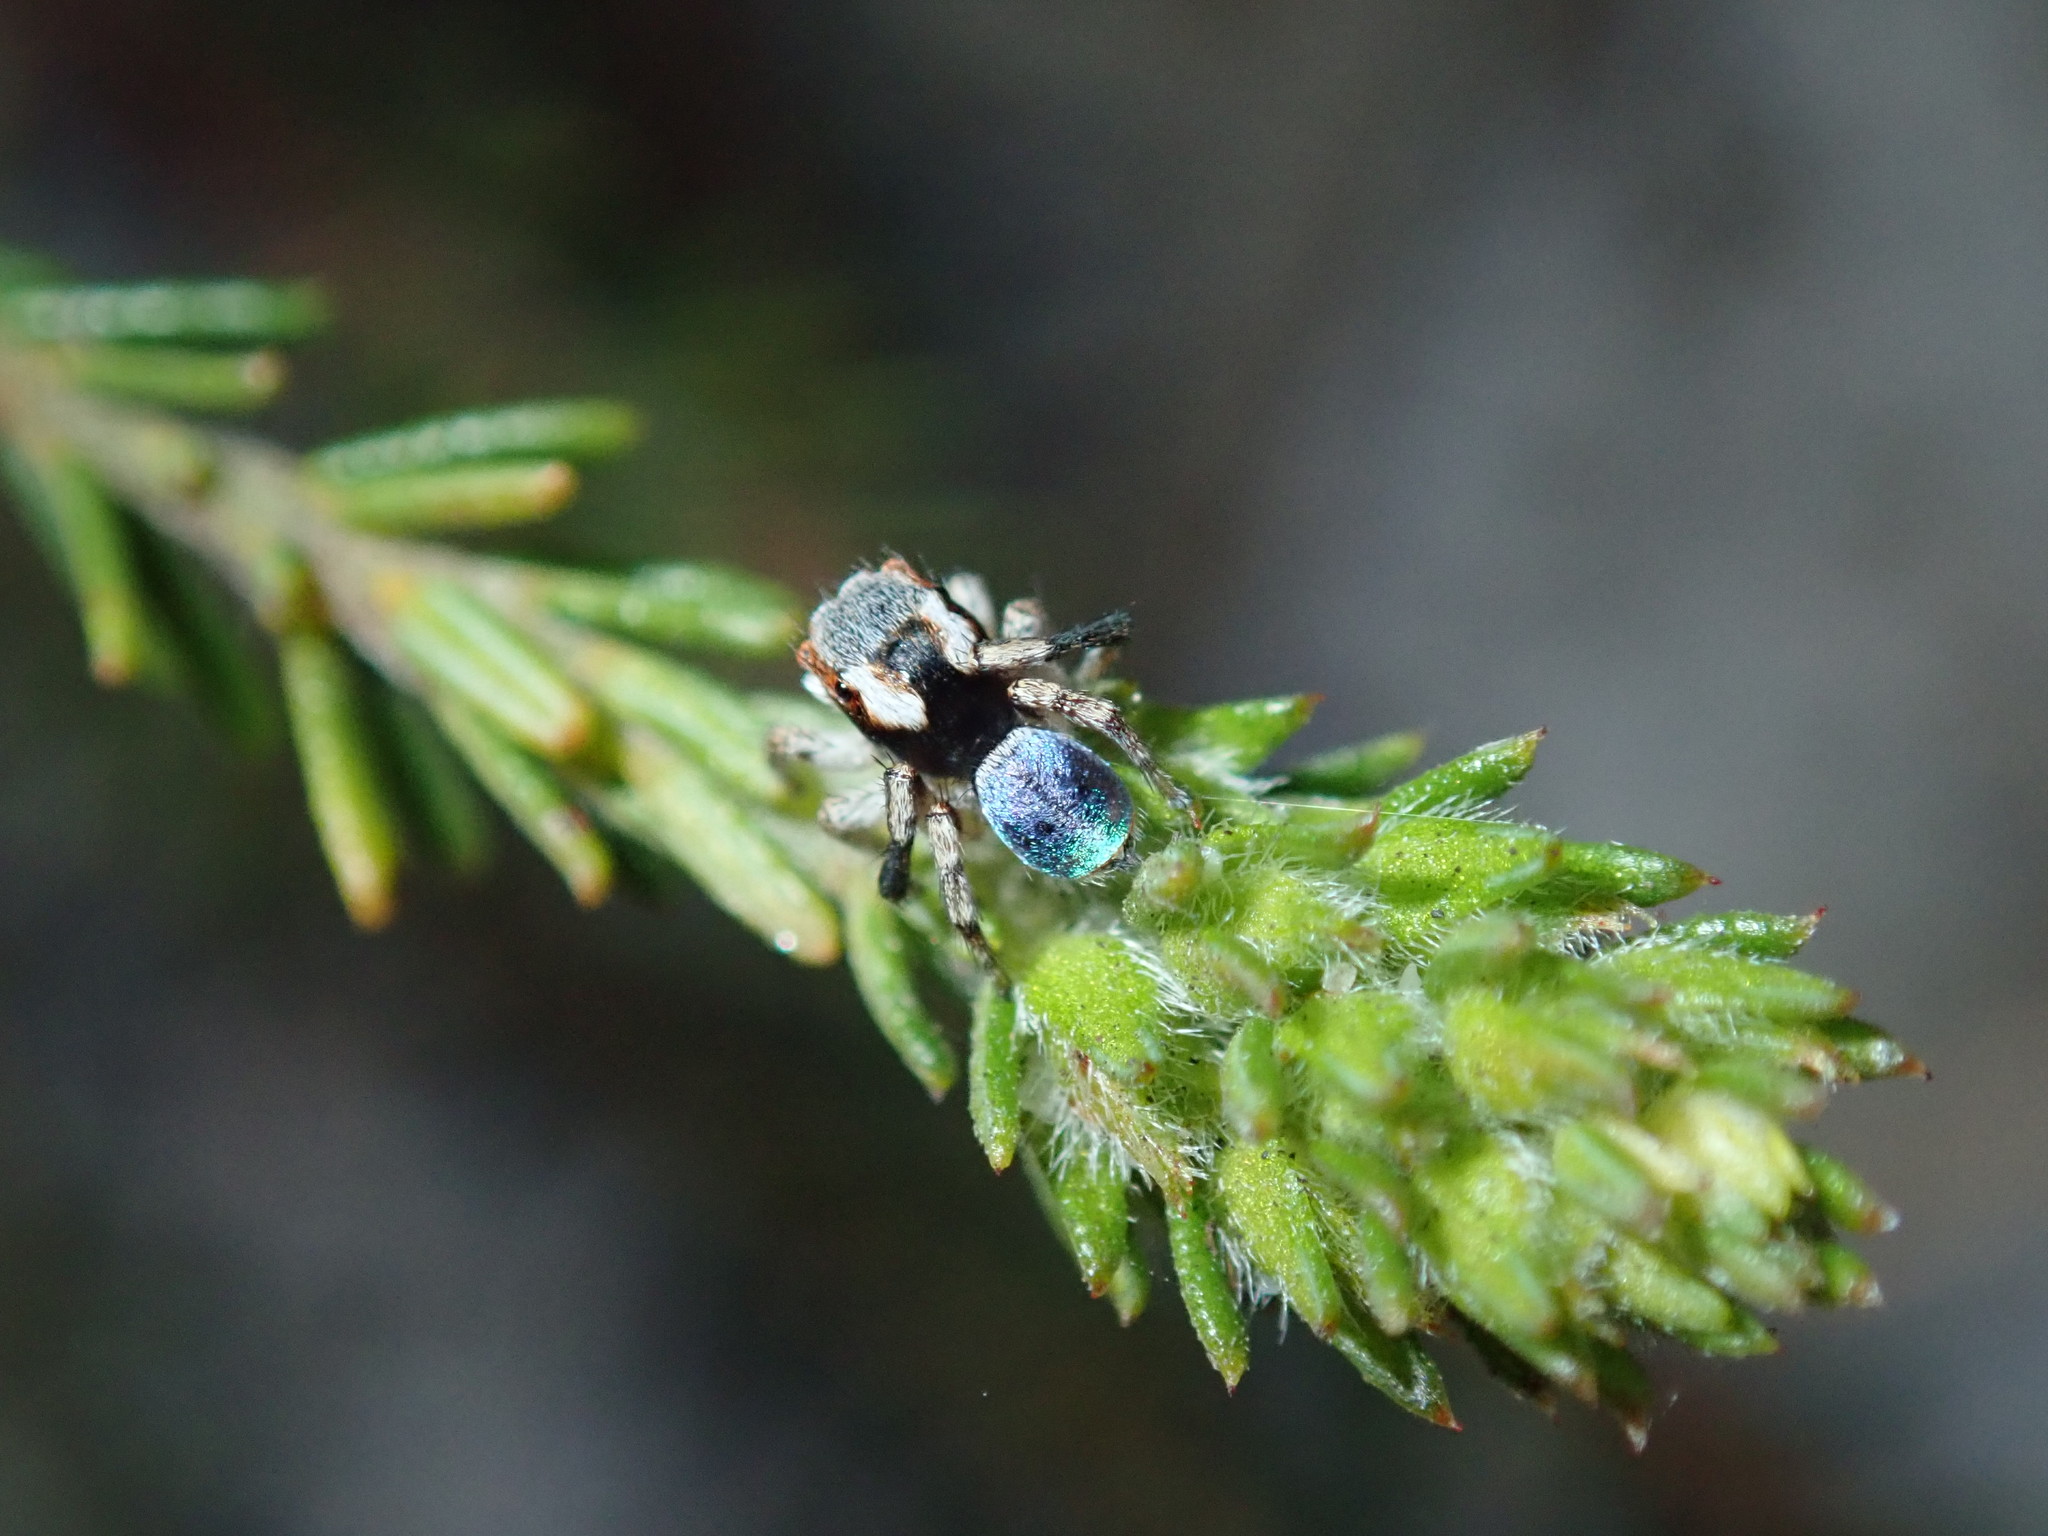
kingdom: Animalia
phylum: Arthropoda
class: Arachnida
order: Araneae
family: Salticidae
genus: Maratus
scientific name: Maratus anomalus
